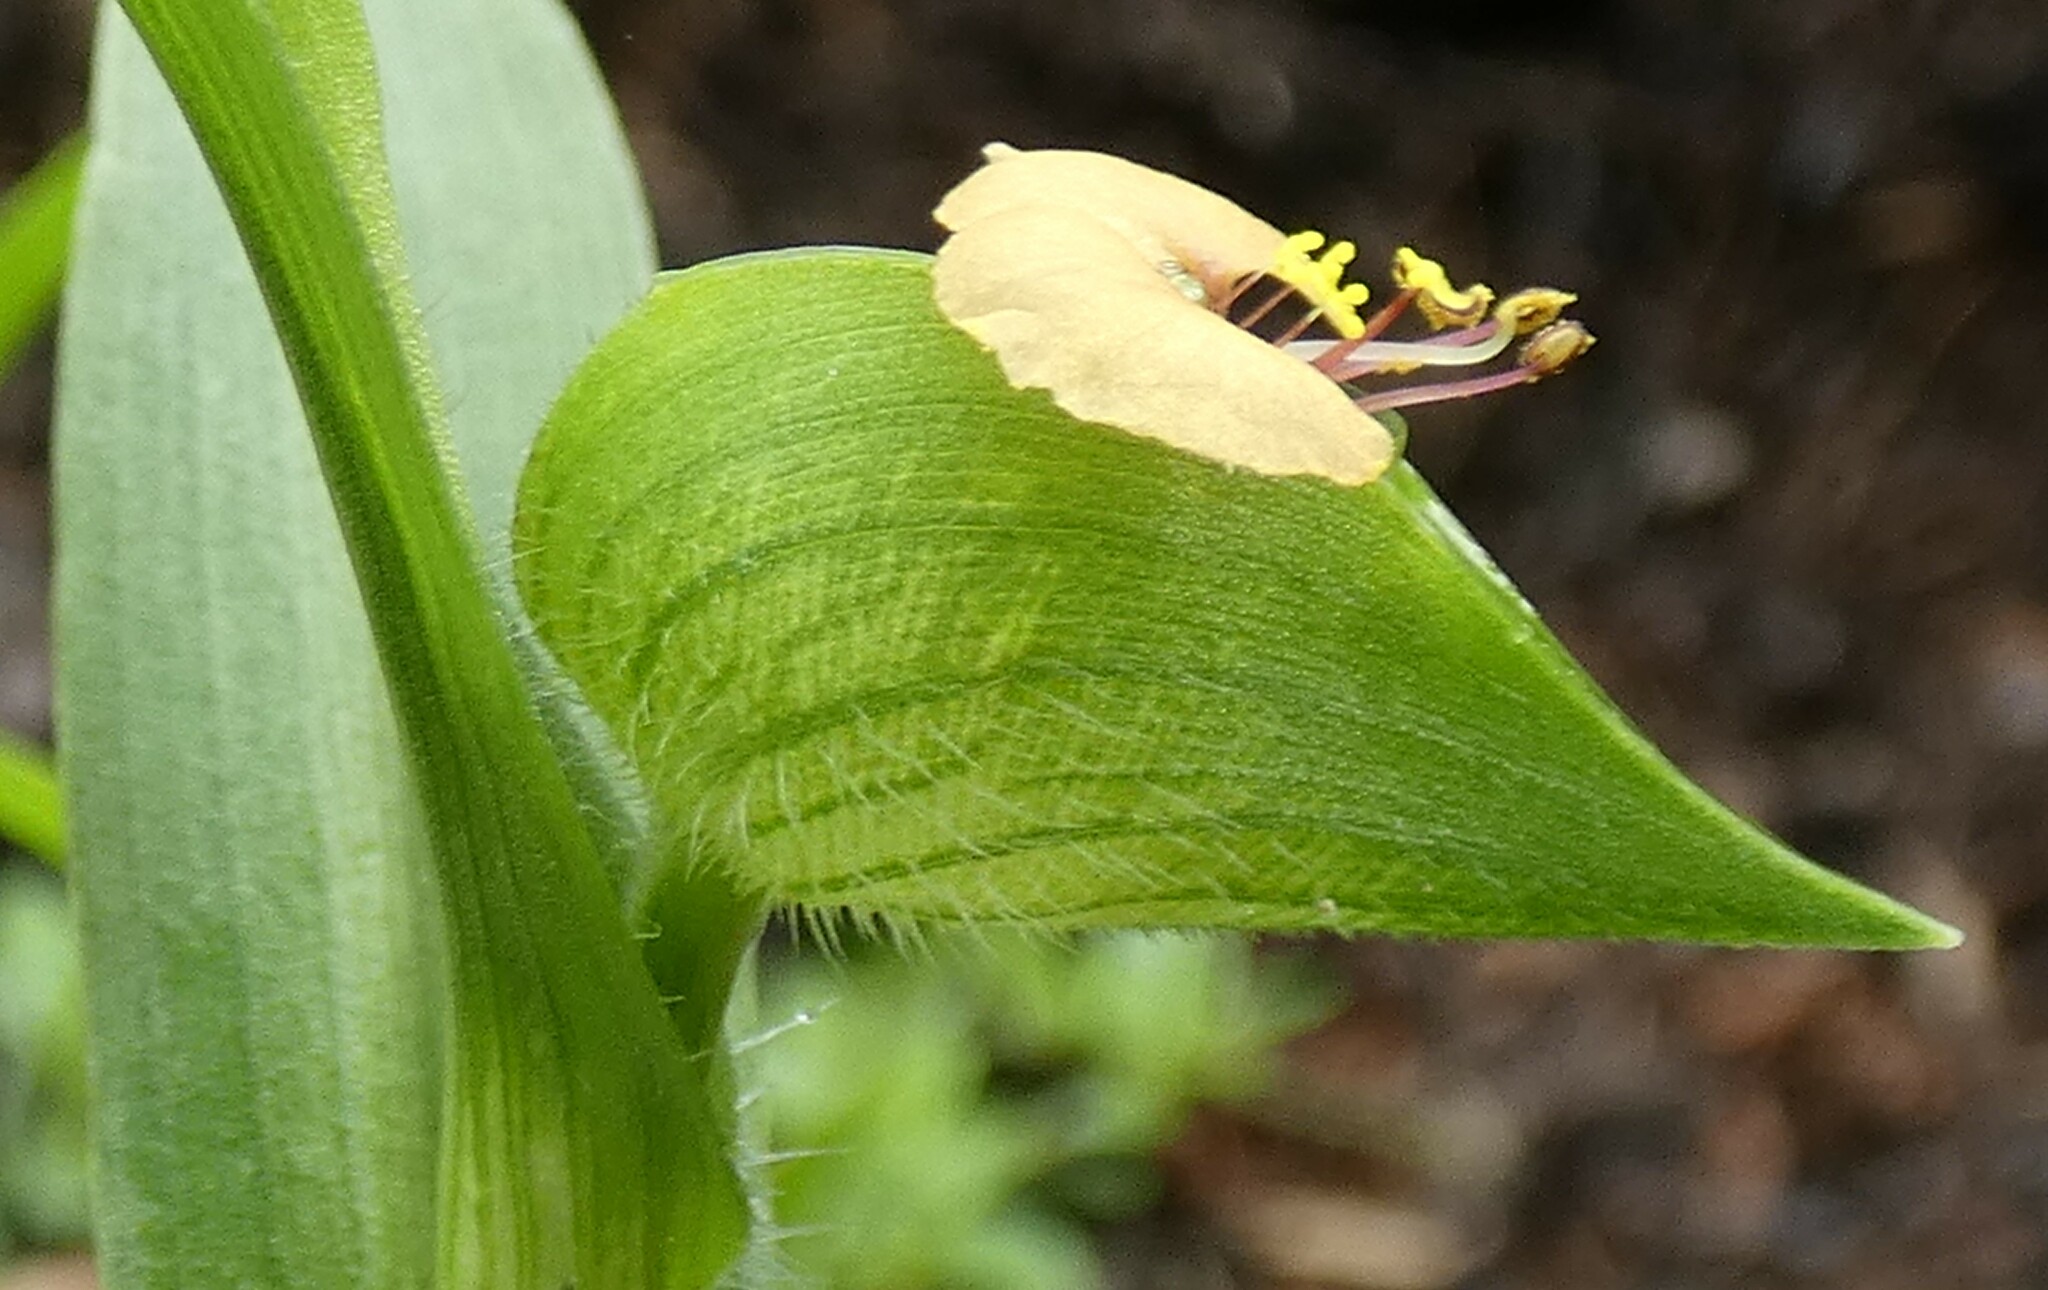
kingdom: Plantae
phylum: Tracheophyta
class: Liliopsida
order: Commelinales
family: Commelinaceae
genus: Commelina
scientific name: Commelina gambiae
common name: Gambian dayflower
